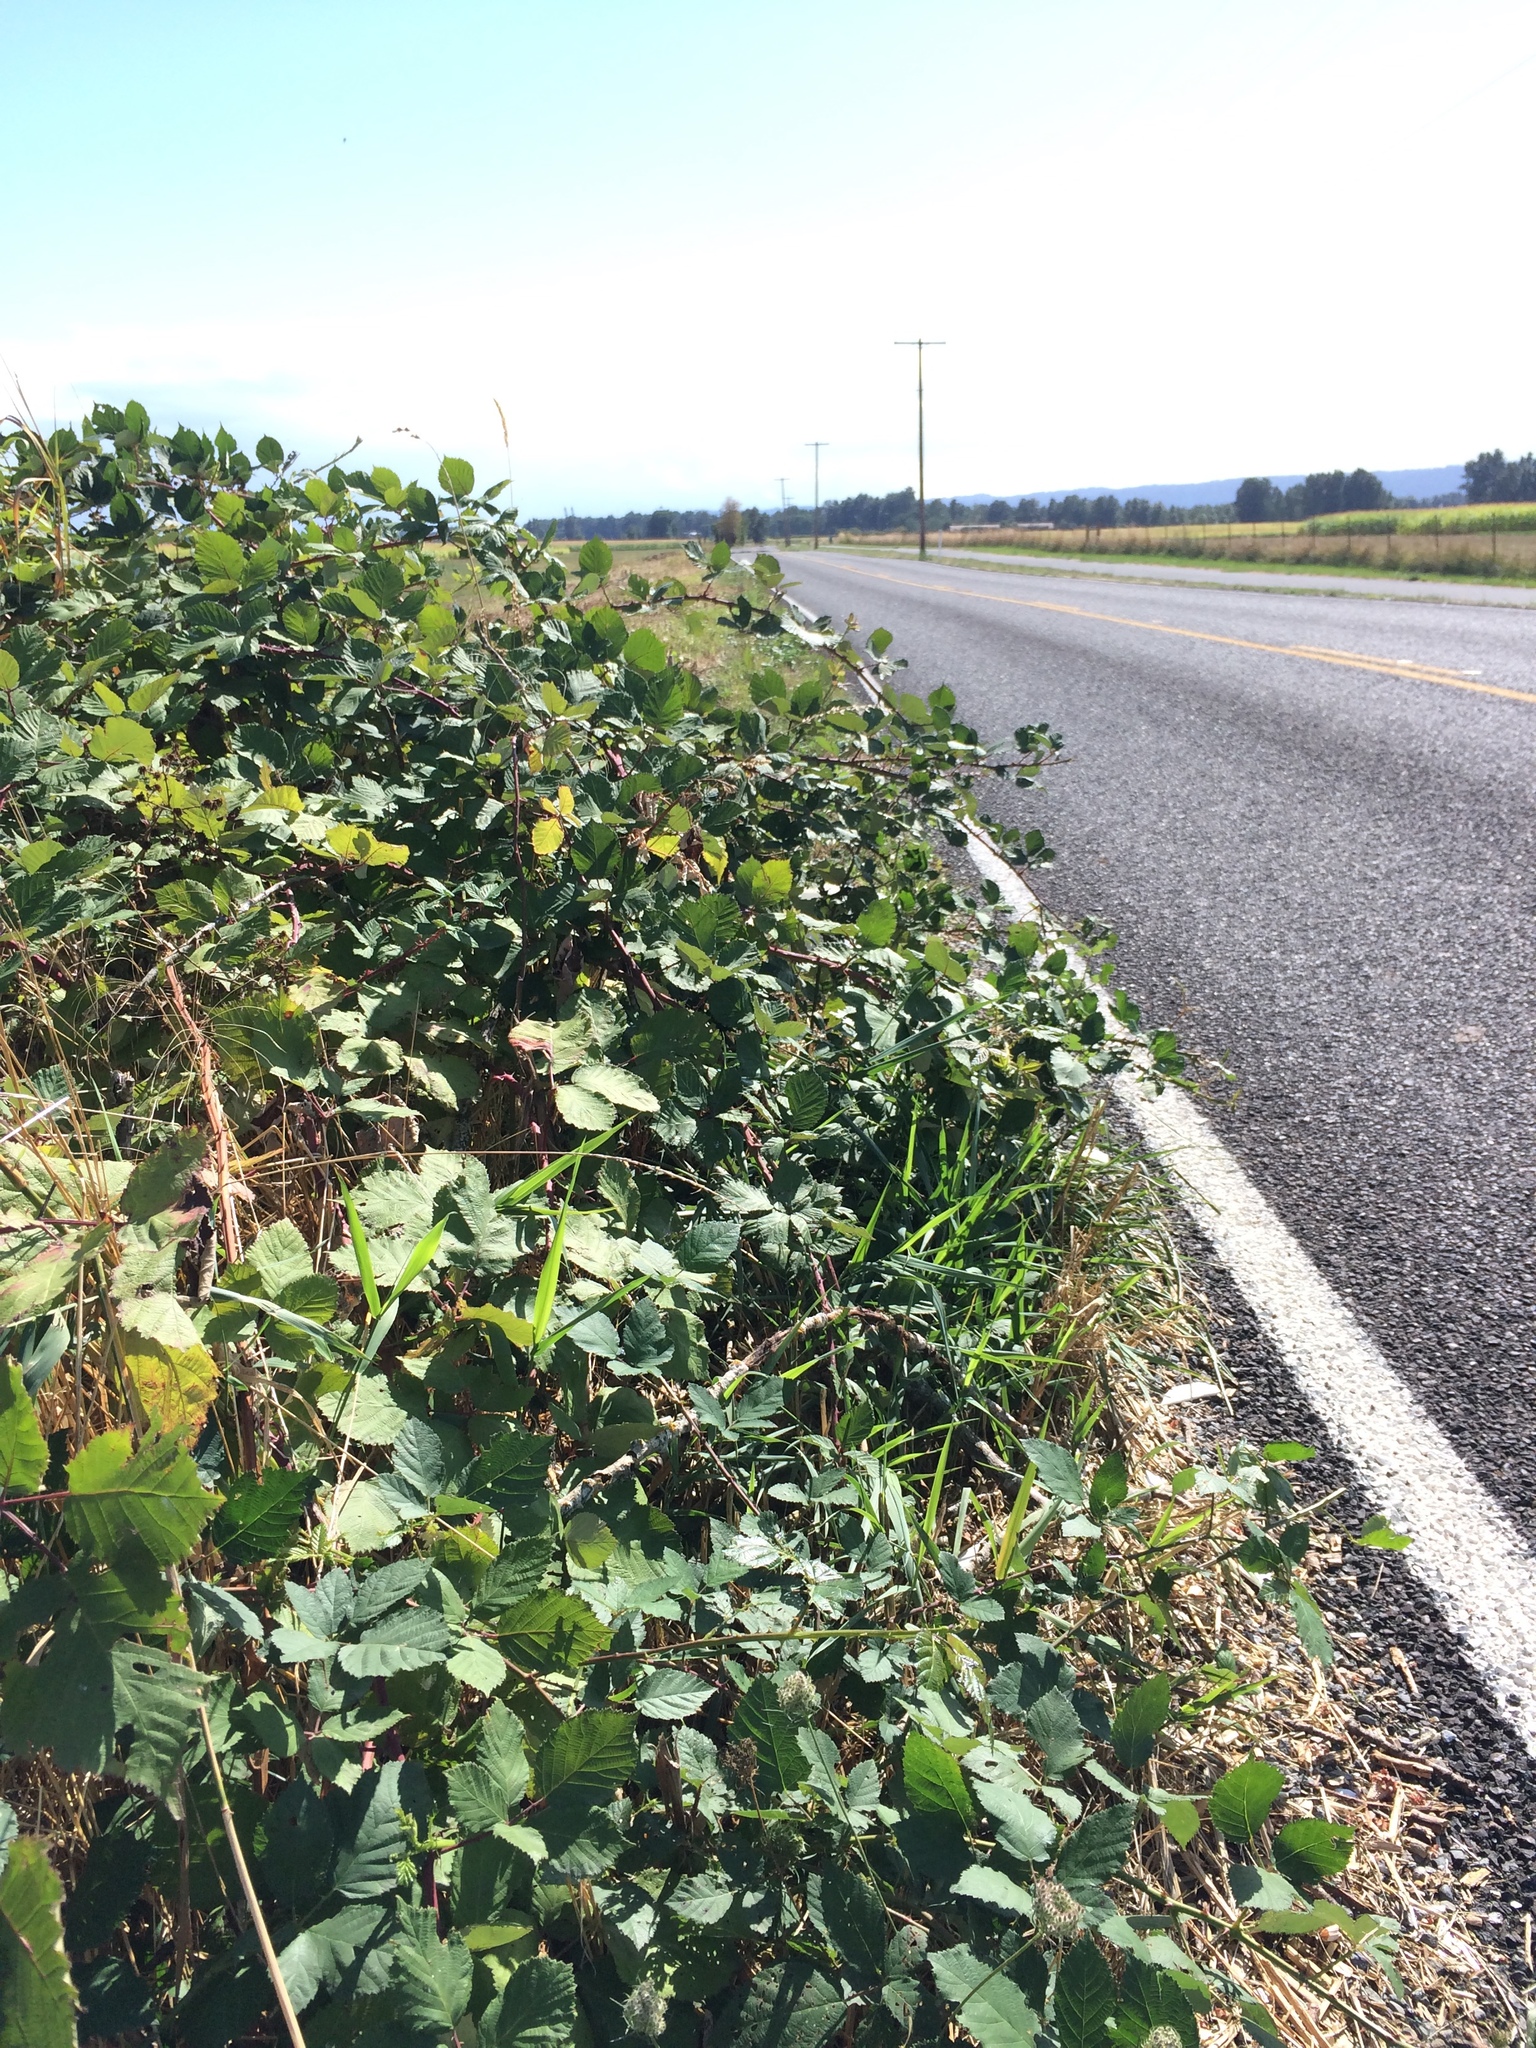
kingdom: Plantae
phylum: Tracheophyta
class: Magnoliopsida
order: Rosales
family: Rosaceae
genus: Rubus
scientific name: Rubus bifrons
